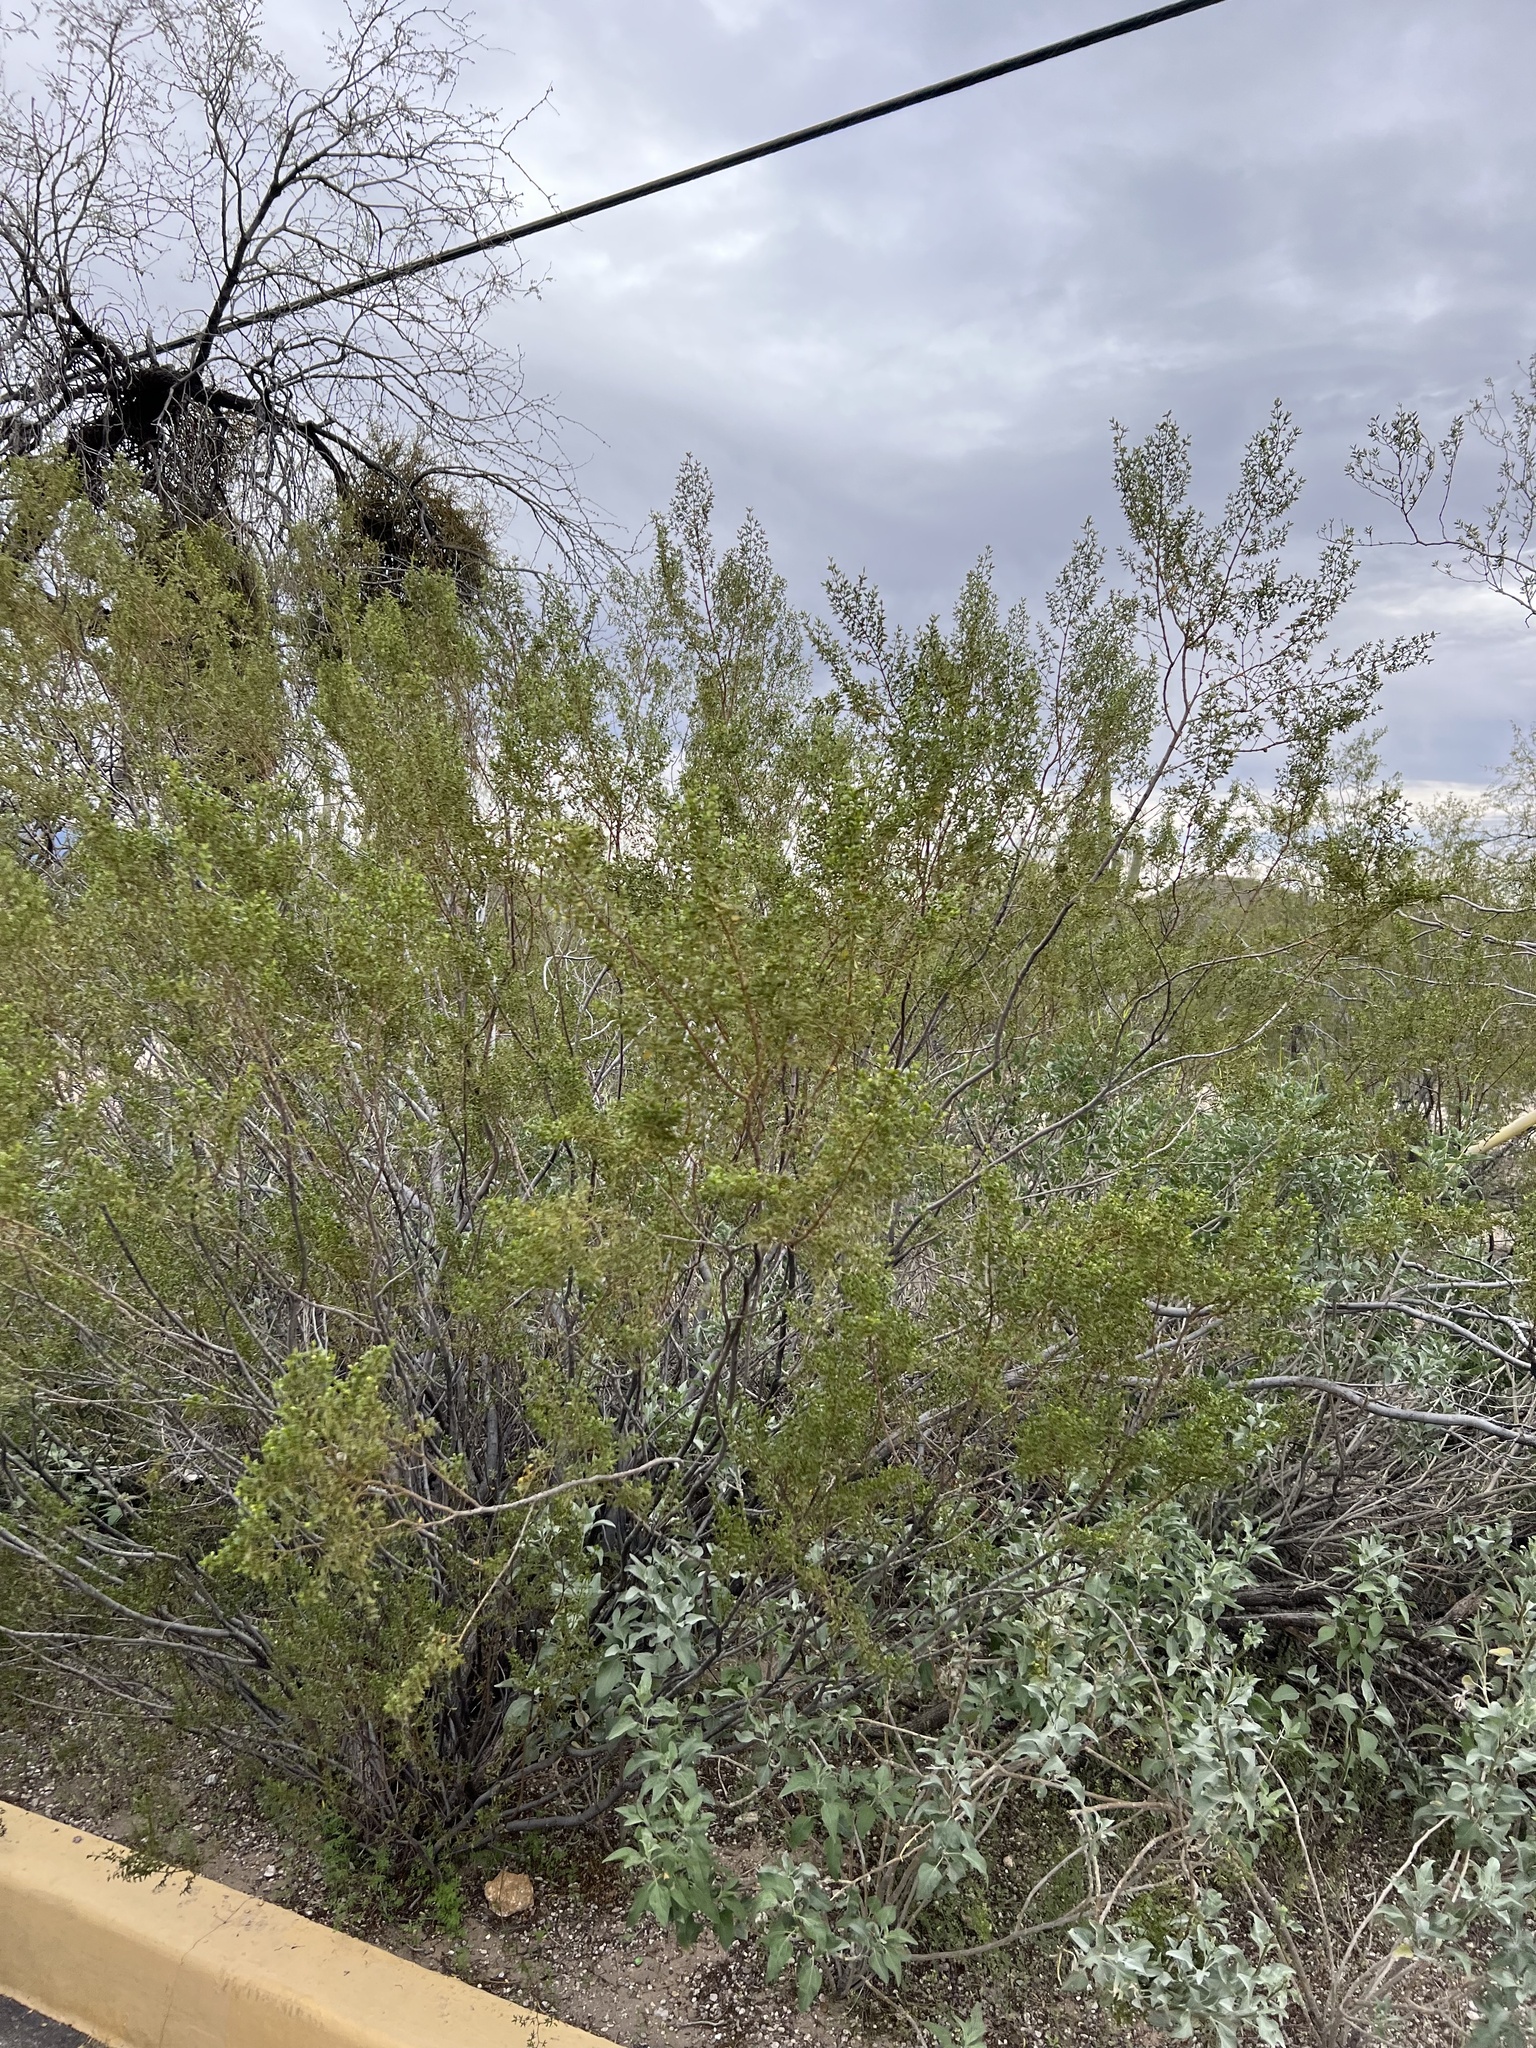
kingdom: Plantae
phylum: Tracheophyta
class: Magnoliopsida
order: Zygophyllales
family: Zygophyllaceae
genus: Larrea
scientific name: Larrea tridentata
